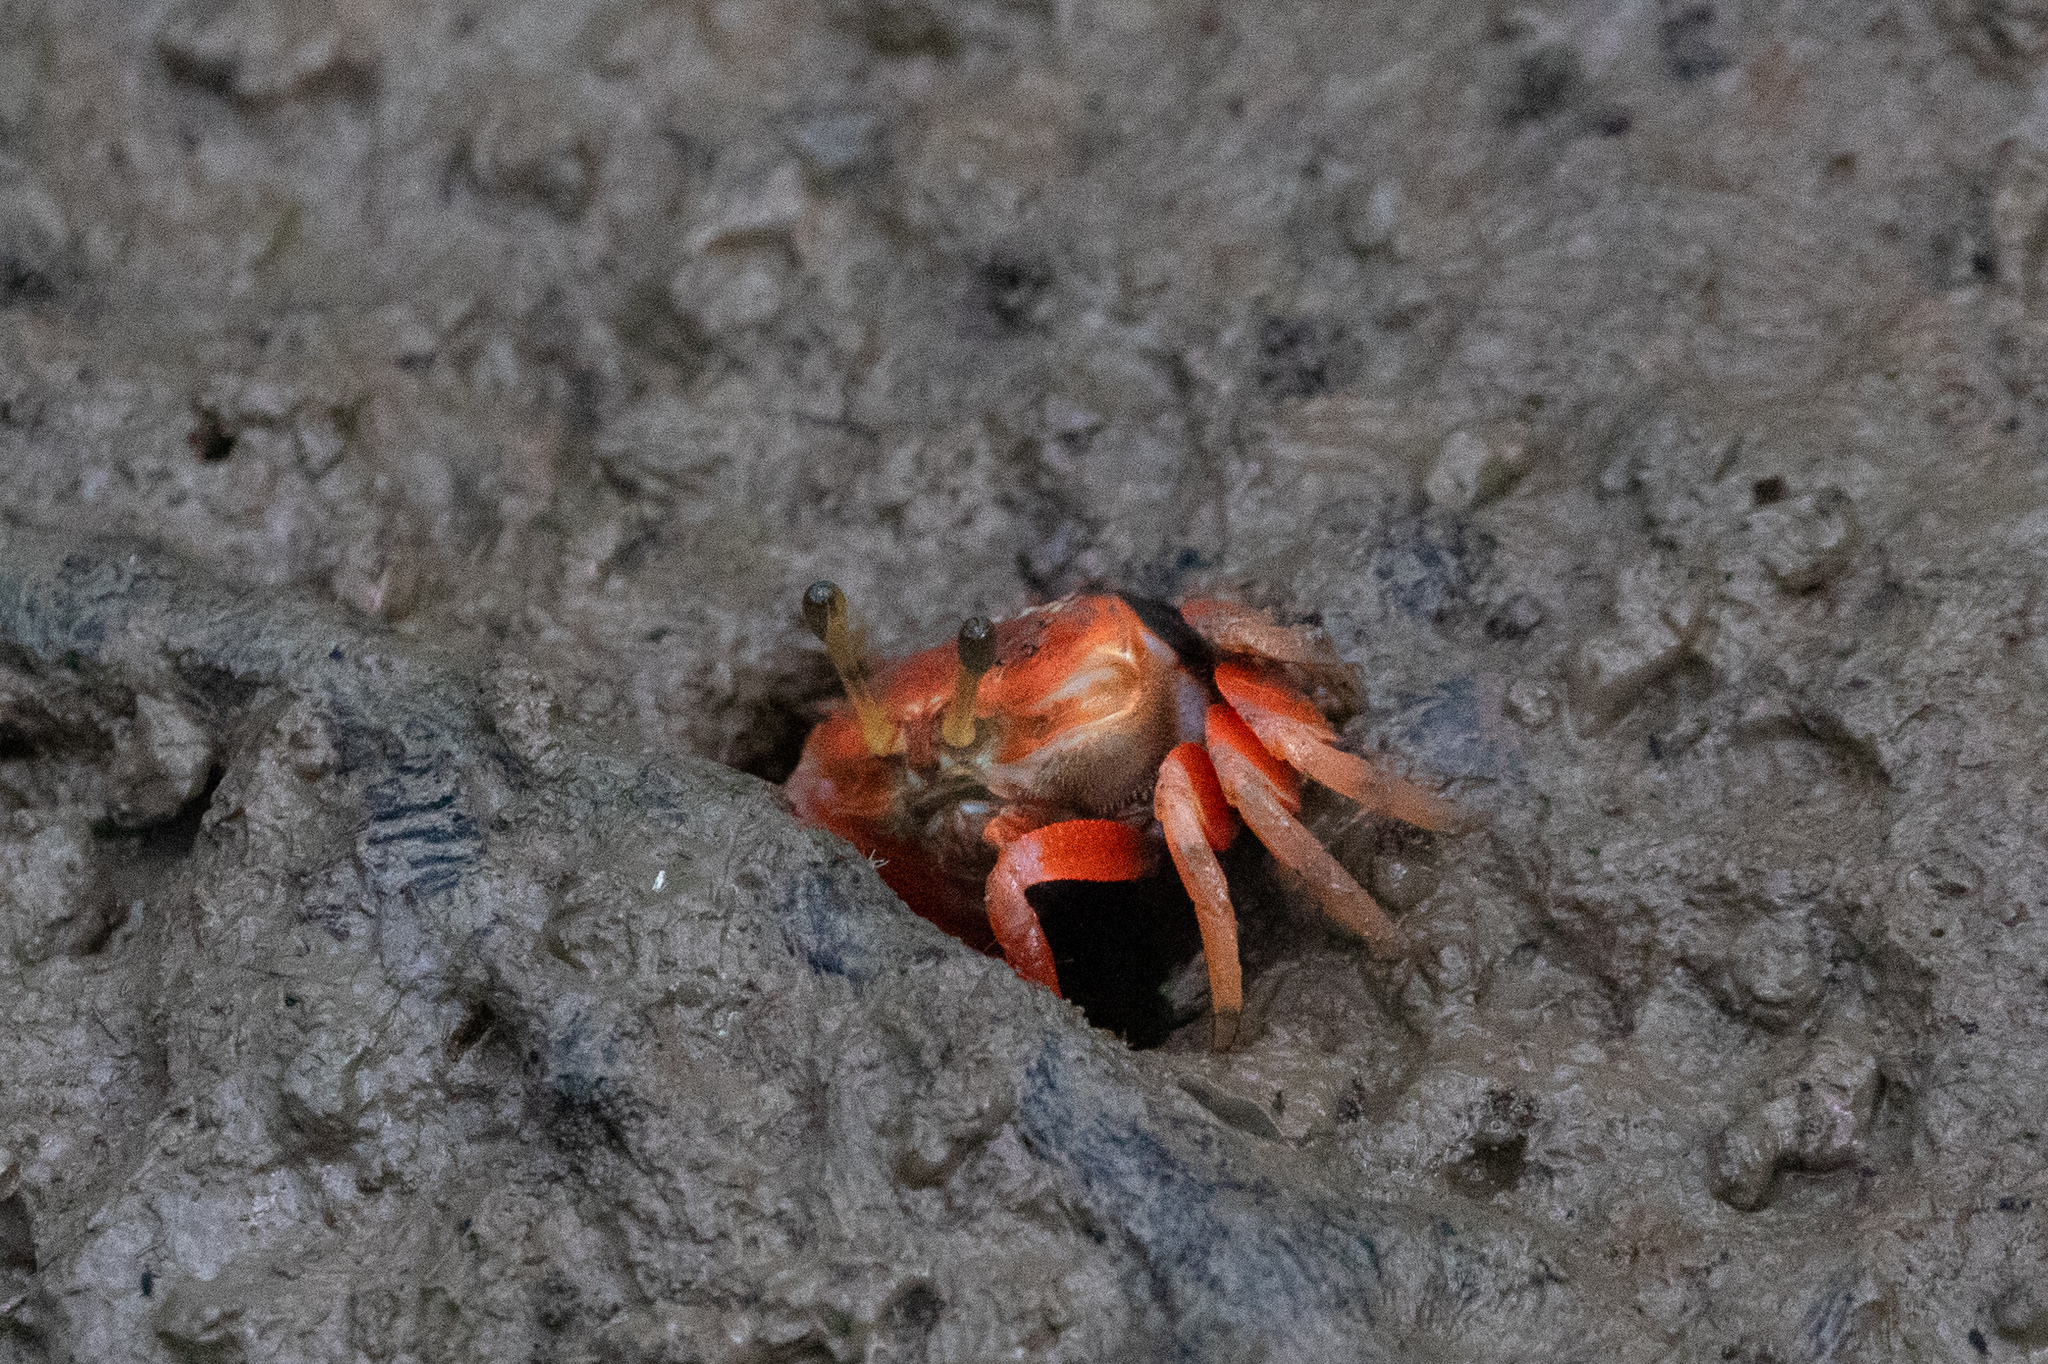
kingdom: Animalia
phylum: Arthropoda
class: Malacostraca
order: Decapoda
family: Ocypodidae
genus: Tubuca
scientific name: Tubuca arcuata
